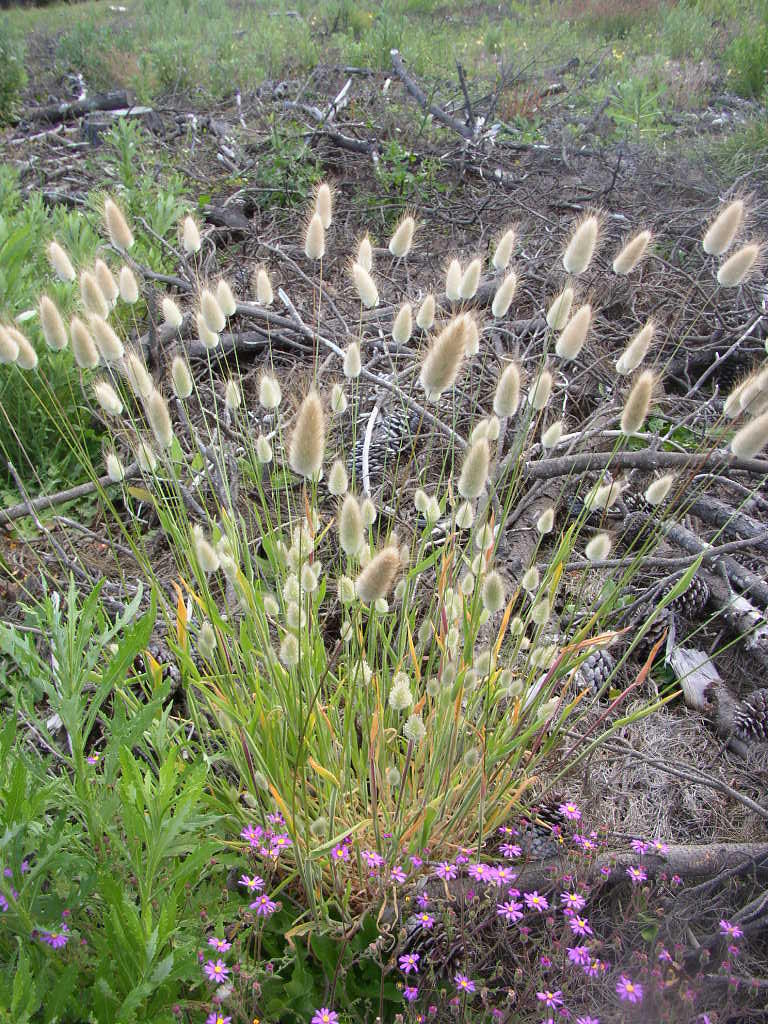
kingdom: Plantae
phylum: Tracheophyta
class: Liliopsida
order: Poales
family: Poaceae
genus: Lagurus
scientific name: Lagurus ovatus
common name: Hare's-tail
